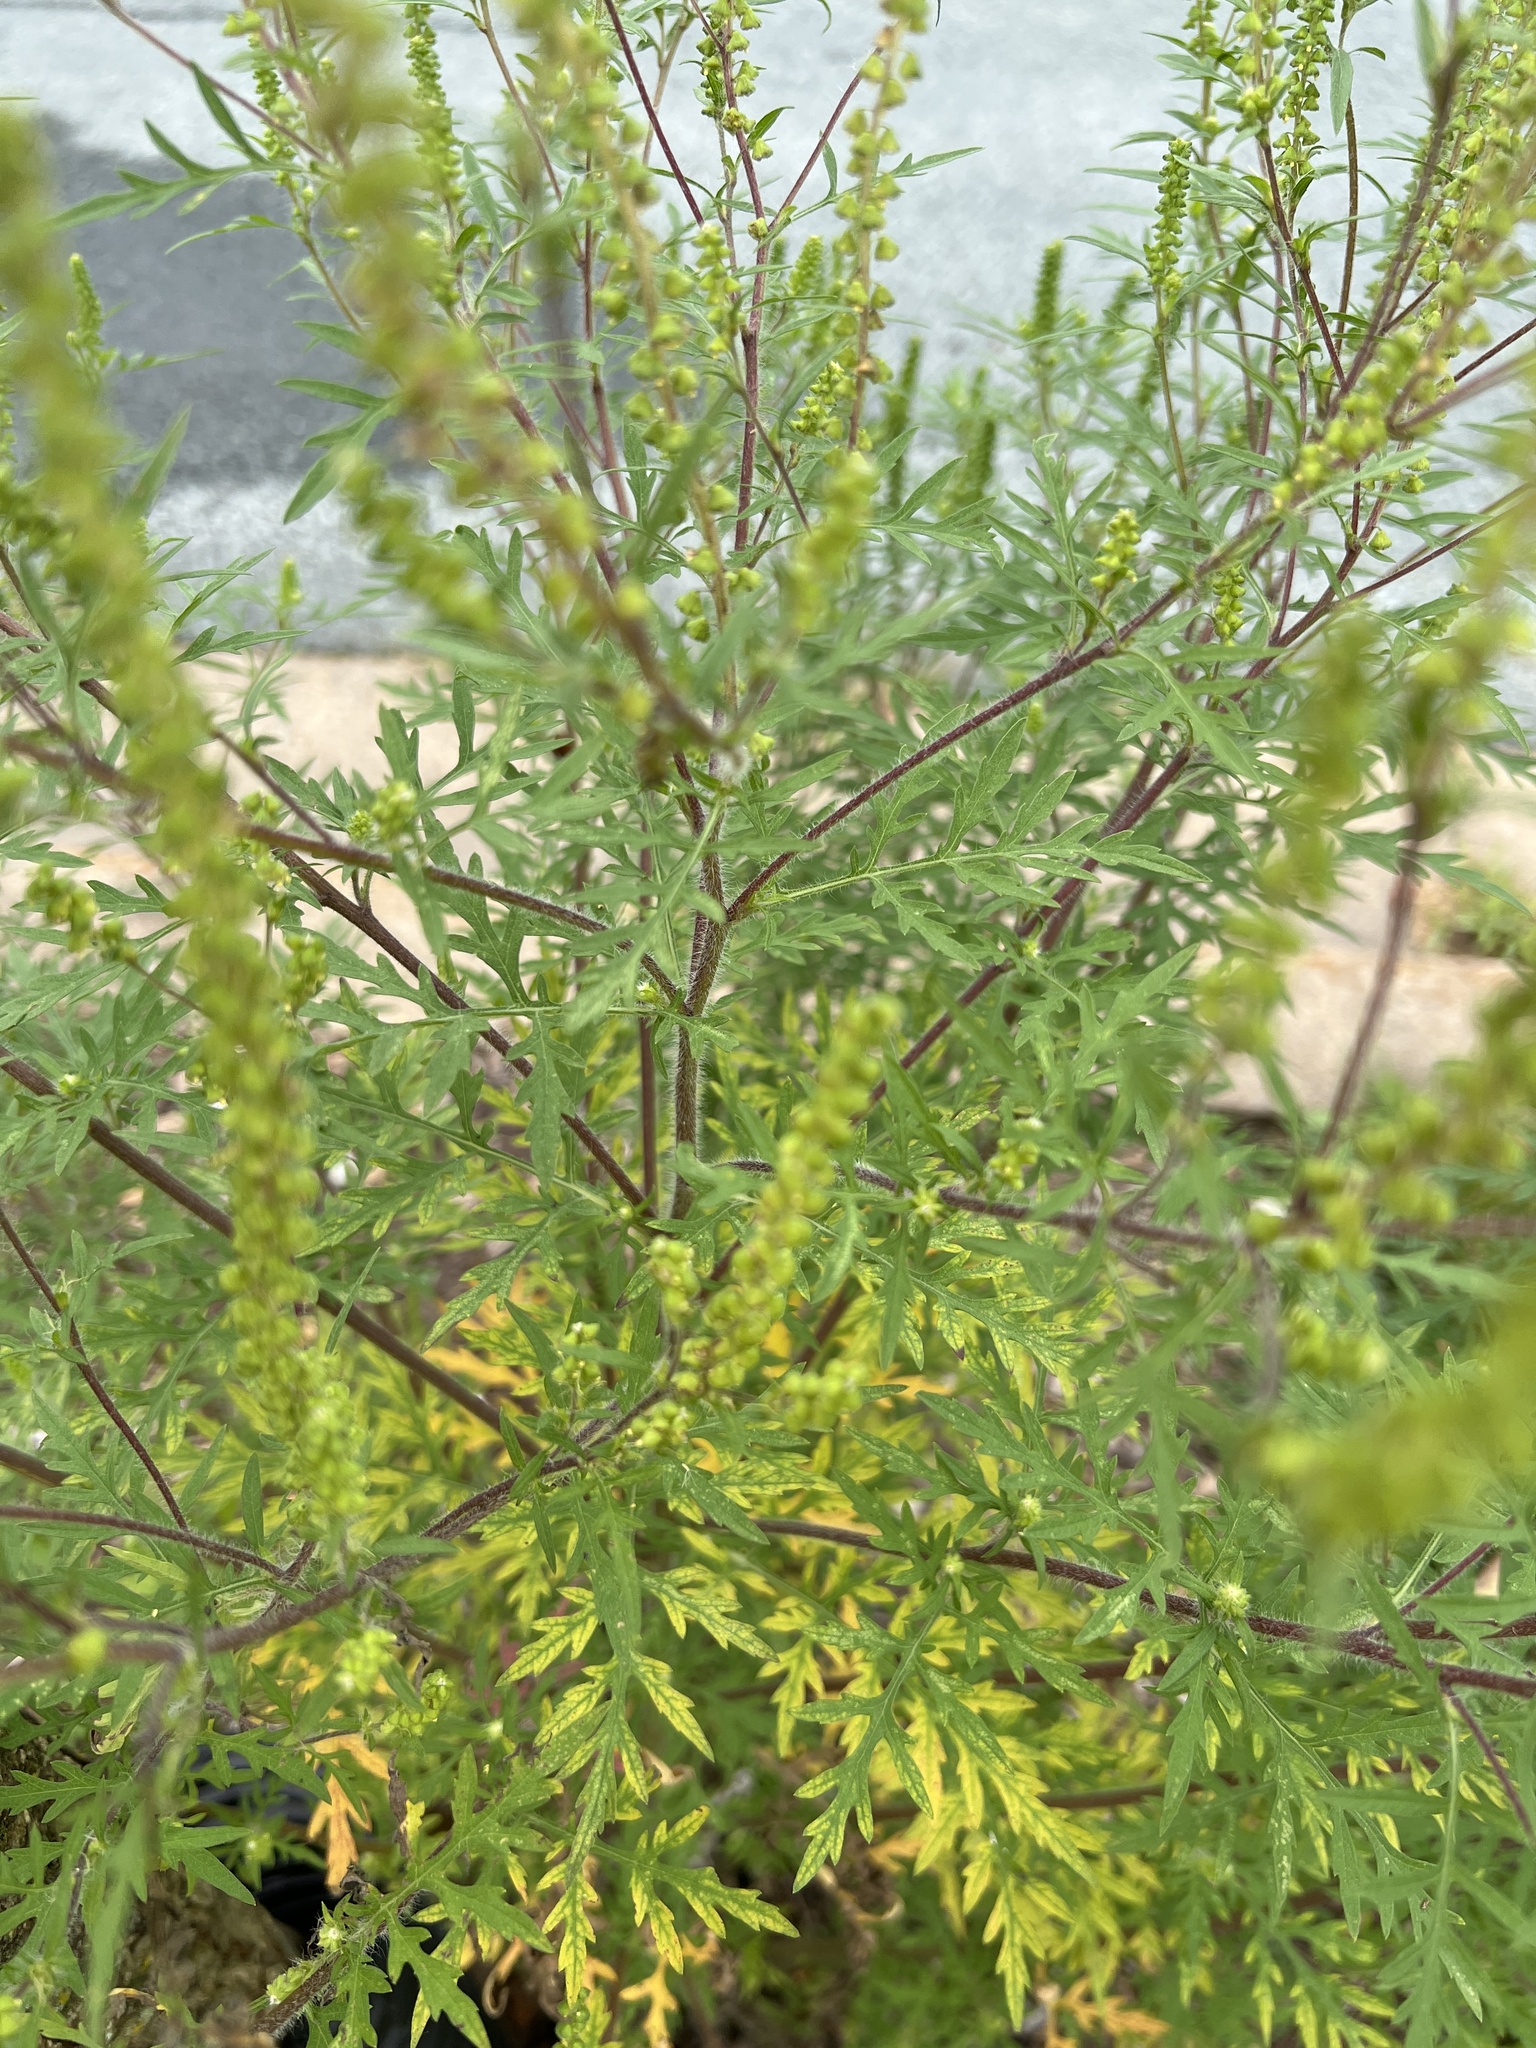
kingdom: Plantae
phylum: Tracheophyta
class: Magnoliopsida
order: Asterales
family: Asteraceae
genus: Ambrosia
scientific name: Ambrosia artemisiifolia
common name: Annual ragweed
